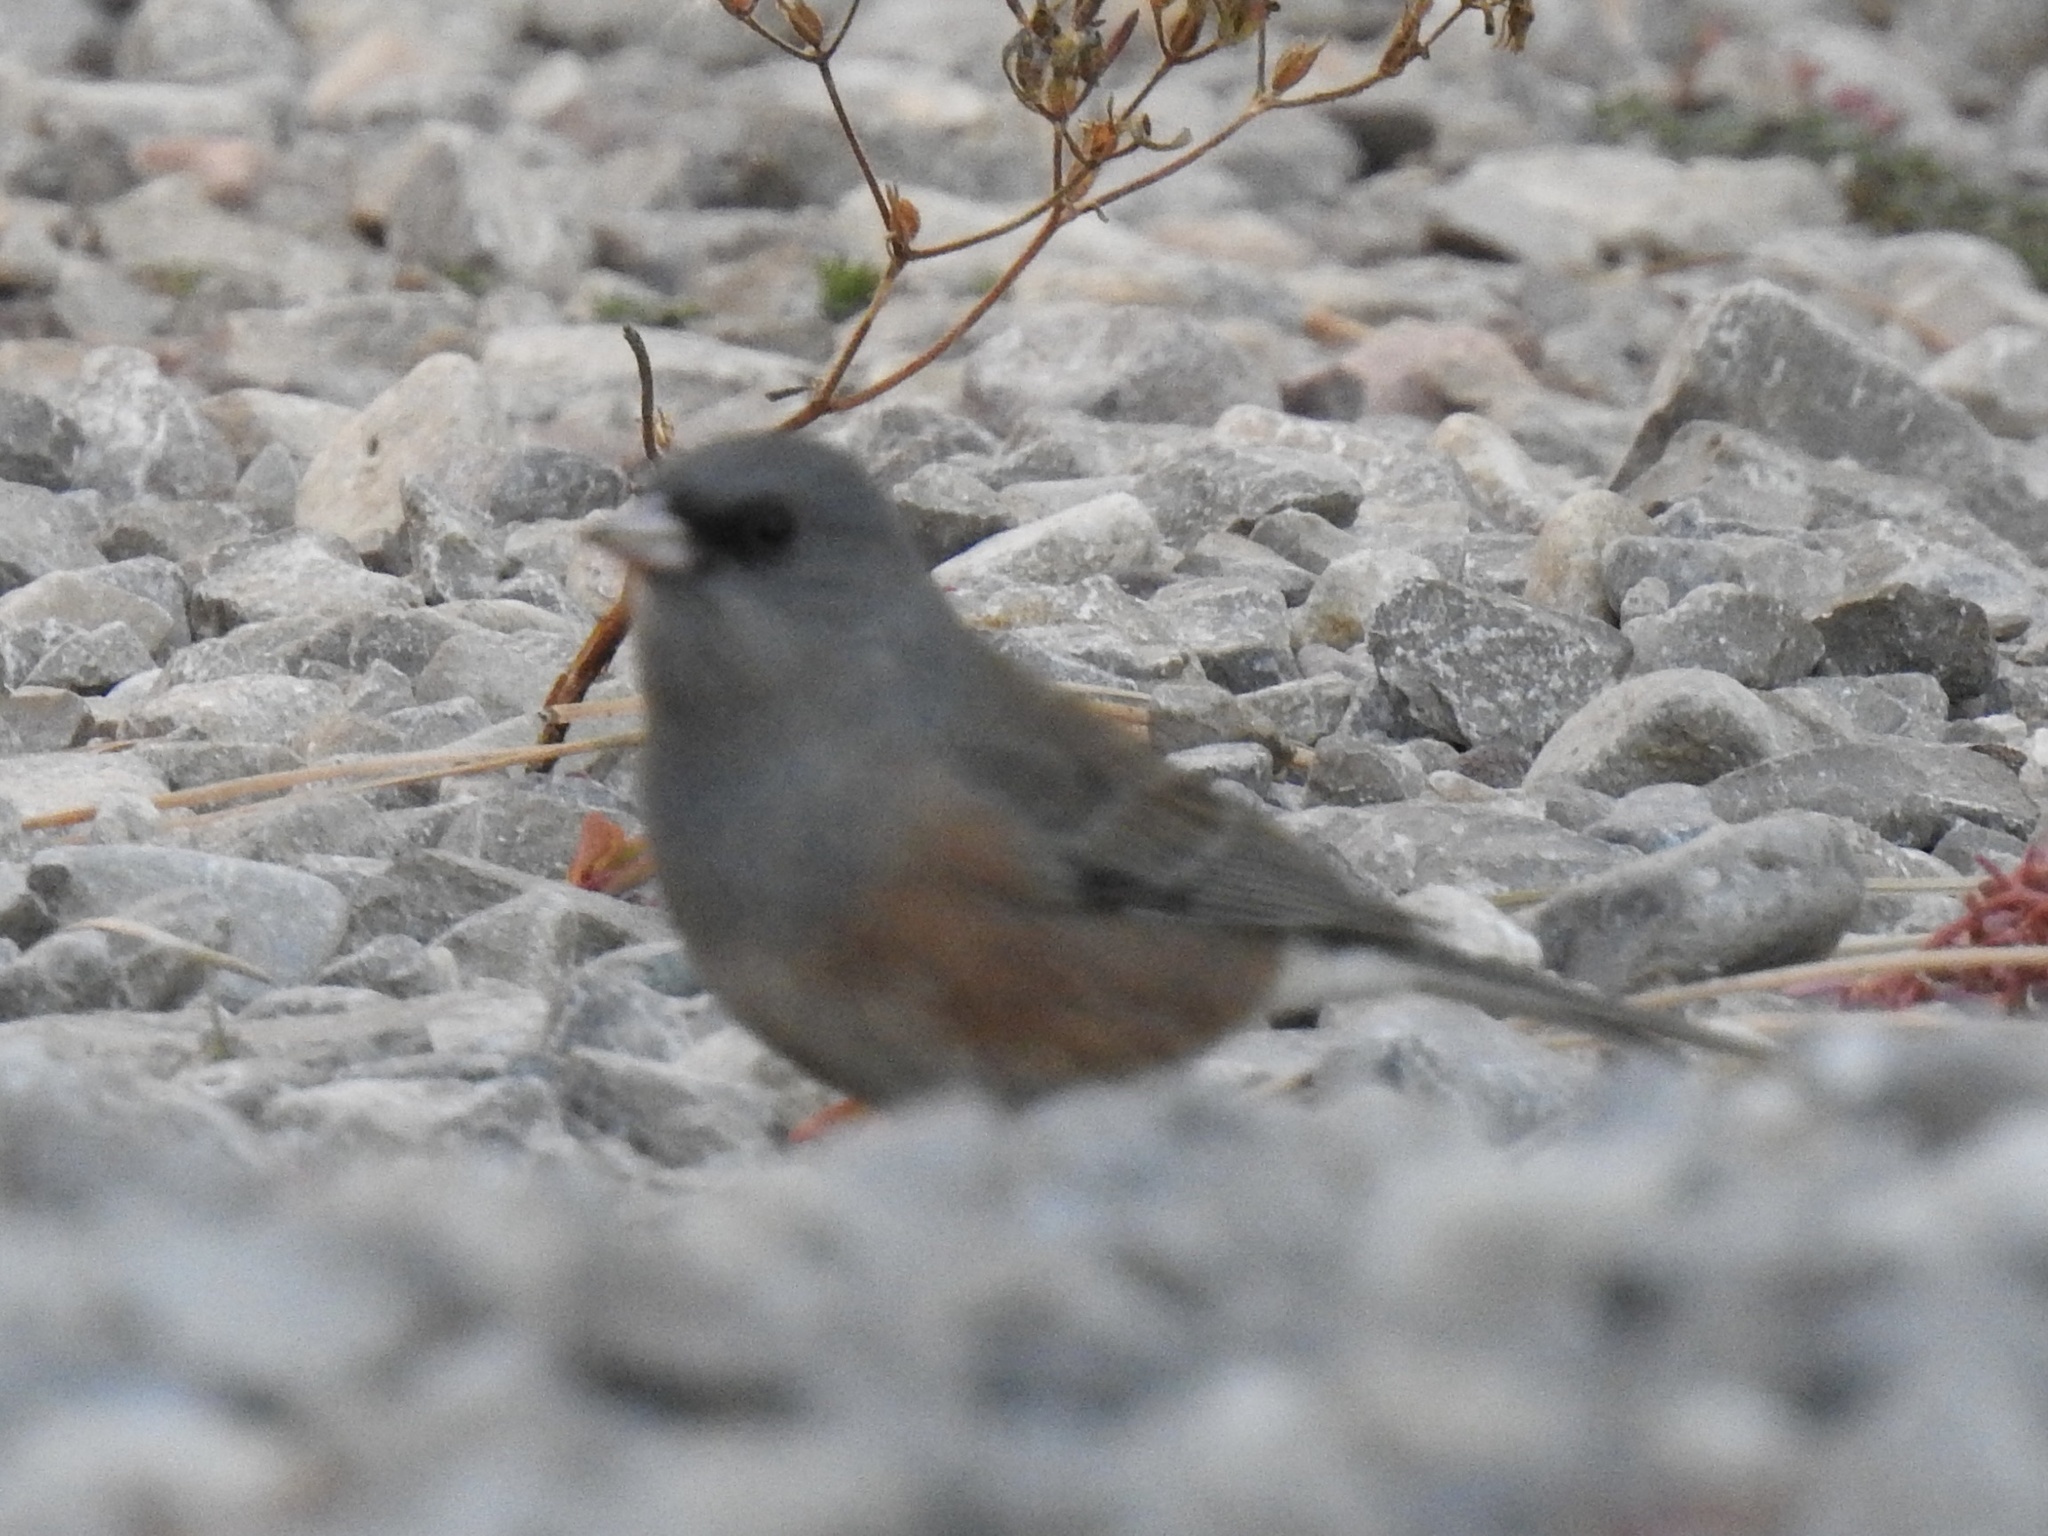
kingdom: Animalia
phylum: Chordata
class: Aves
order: Passeriformes
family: Passerellidae
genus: Junco
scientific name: Junco hyemalis
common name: Dark-eyed junco
